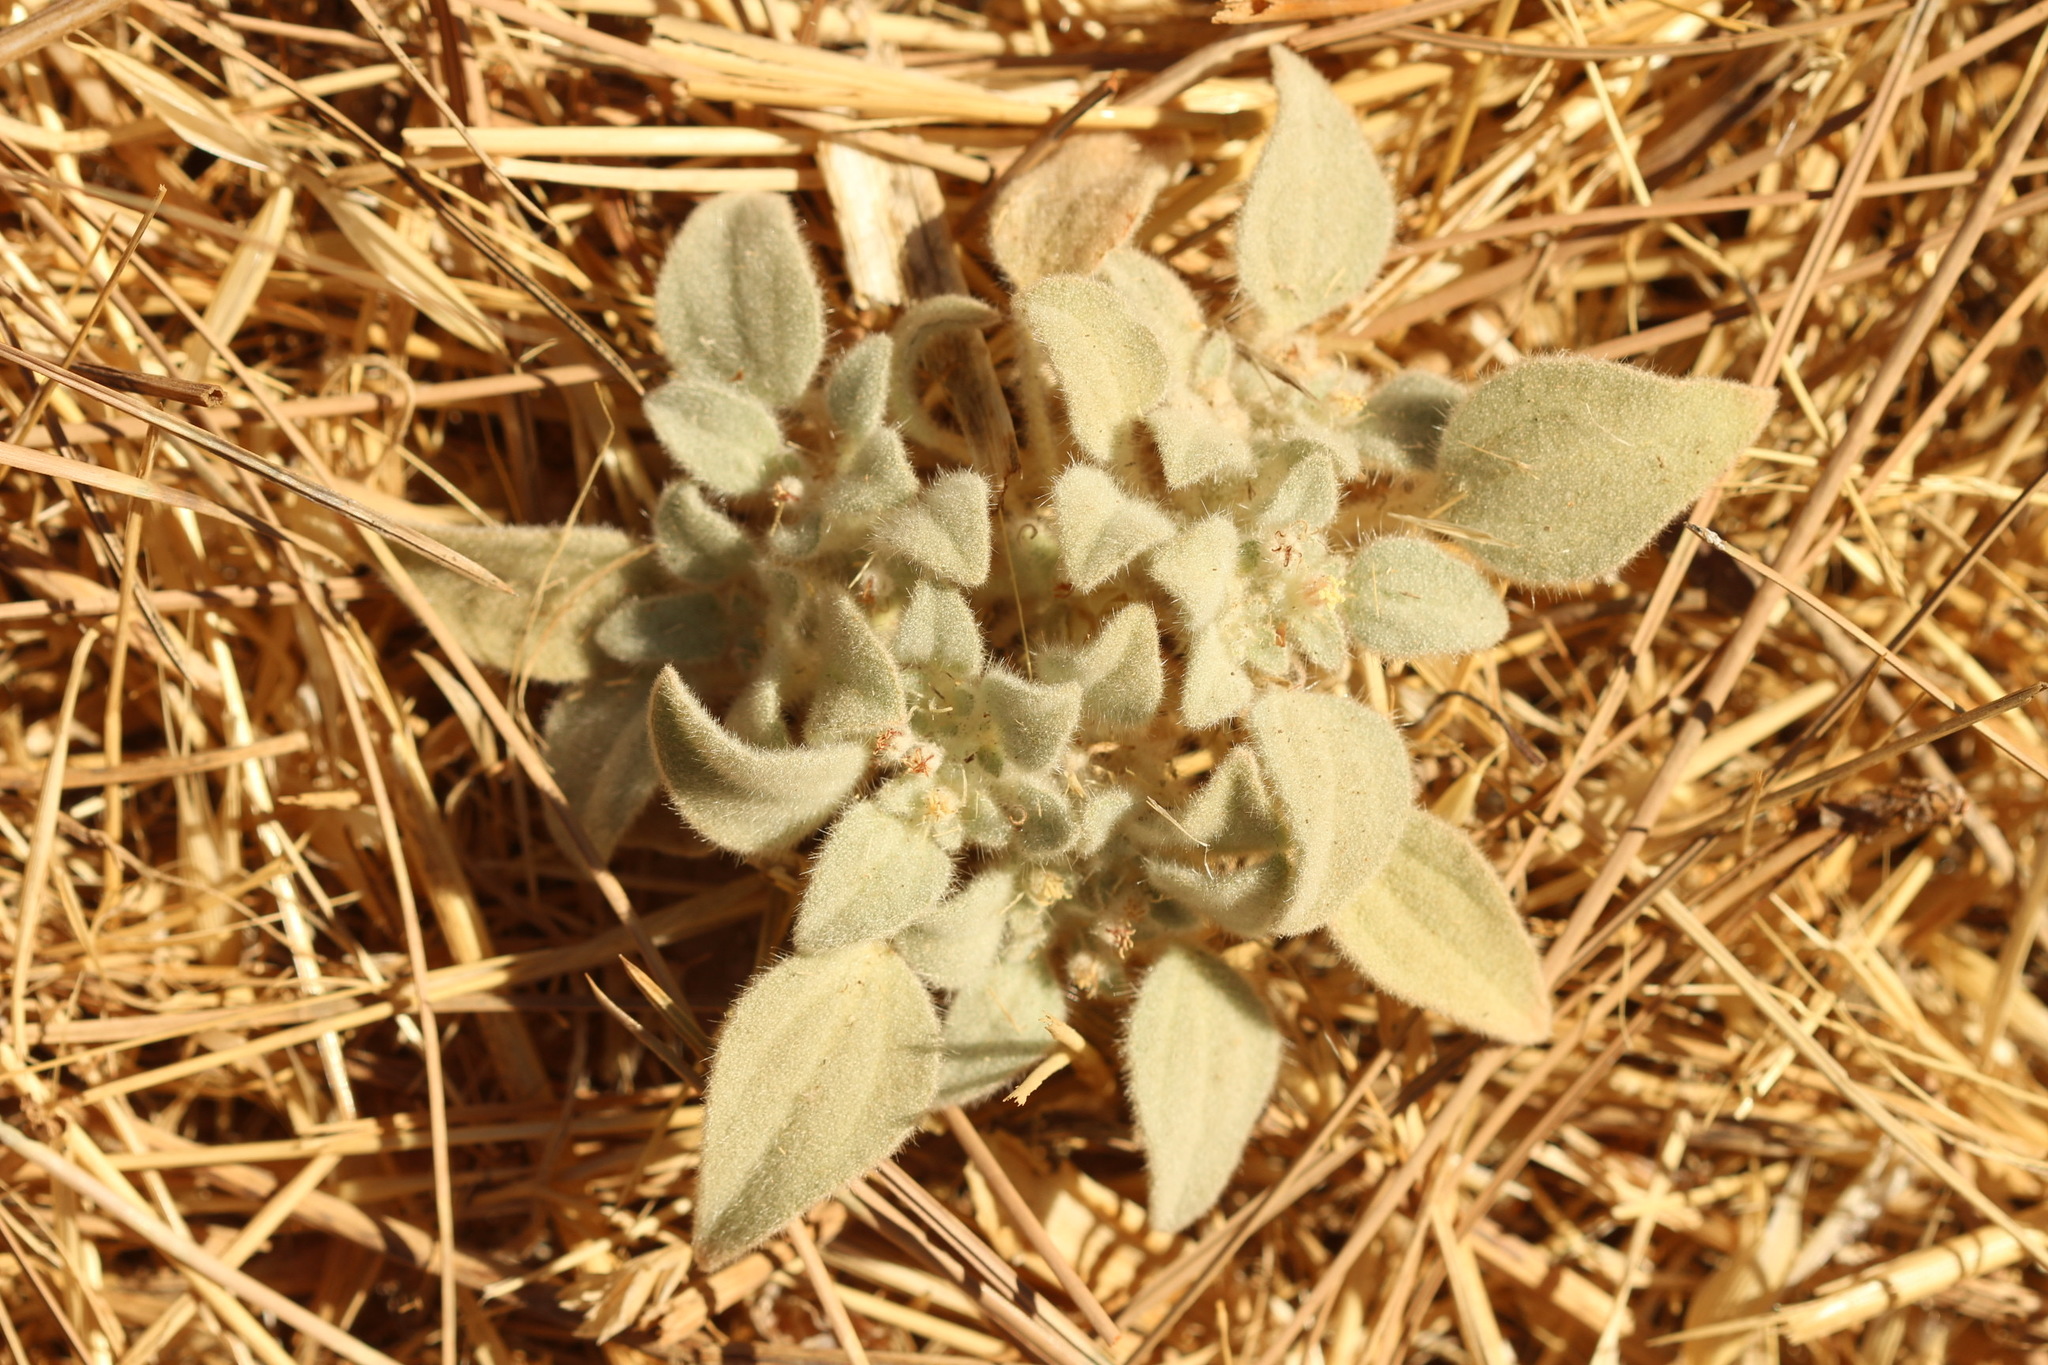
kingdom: Plantae
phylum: Tracheophyta
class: Magnoliopsida
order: Malpighiales
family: Euphorbiaceae
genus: Croton
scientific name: Croton setiger
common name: Dove weed
